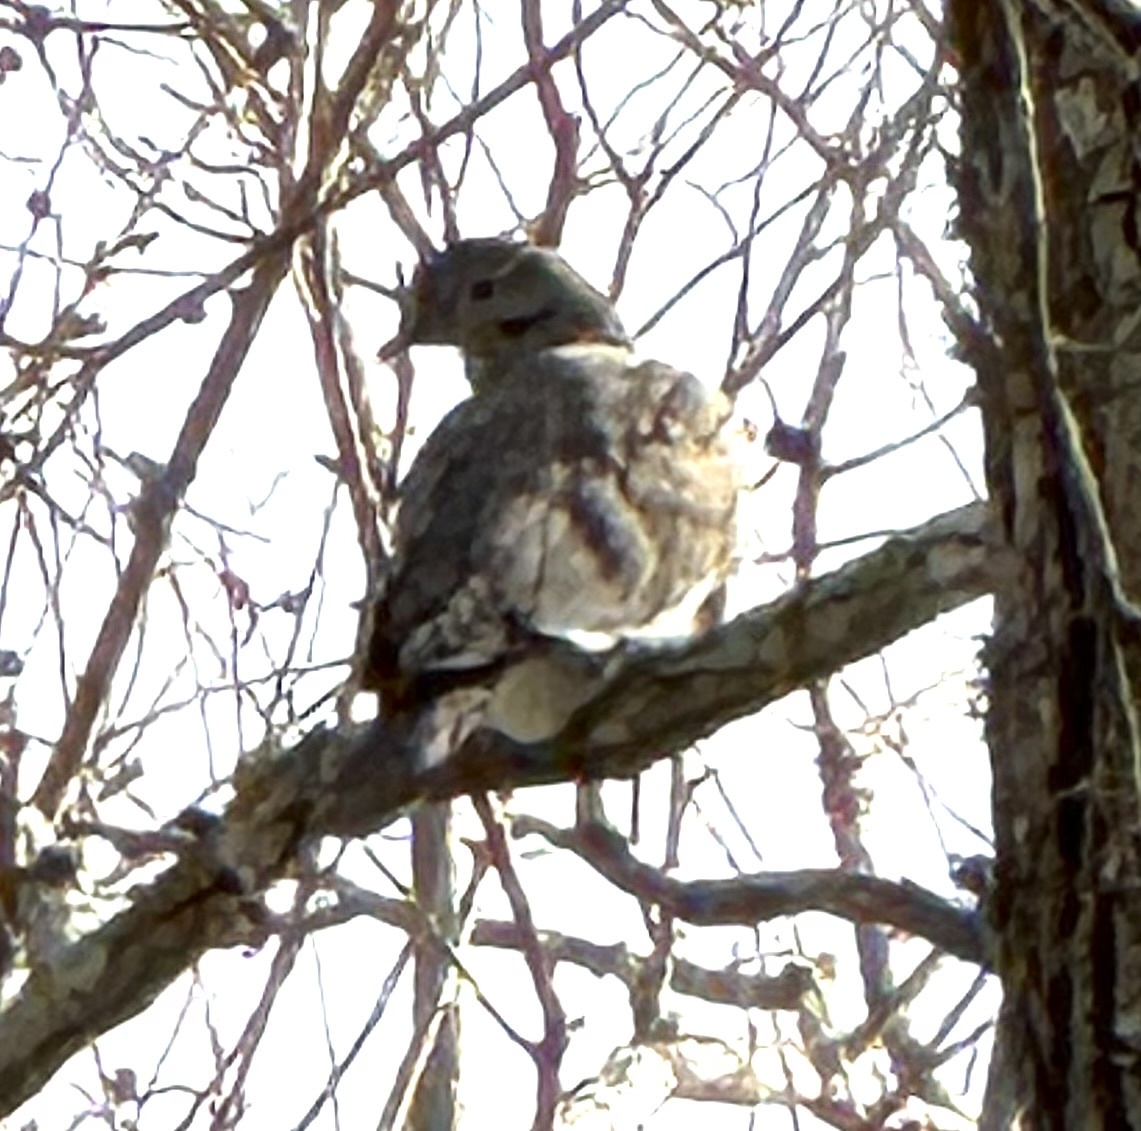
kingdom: Animalia
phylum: Chordata
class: Aves
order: Columbiformes
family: Columbidae
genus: Zenaida
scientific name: Zenaida asiatica
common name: White-winged dove
